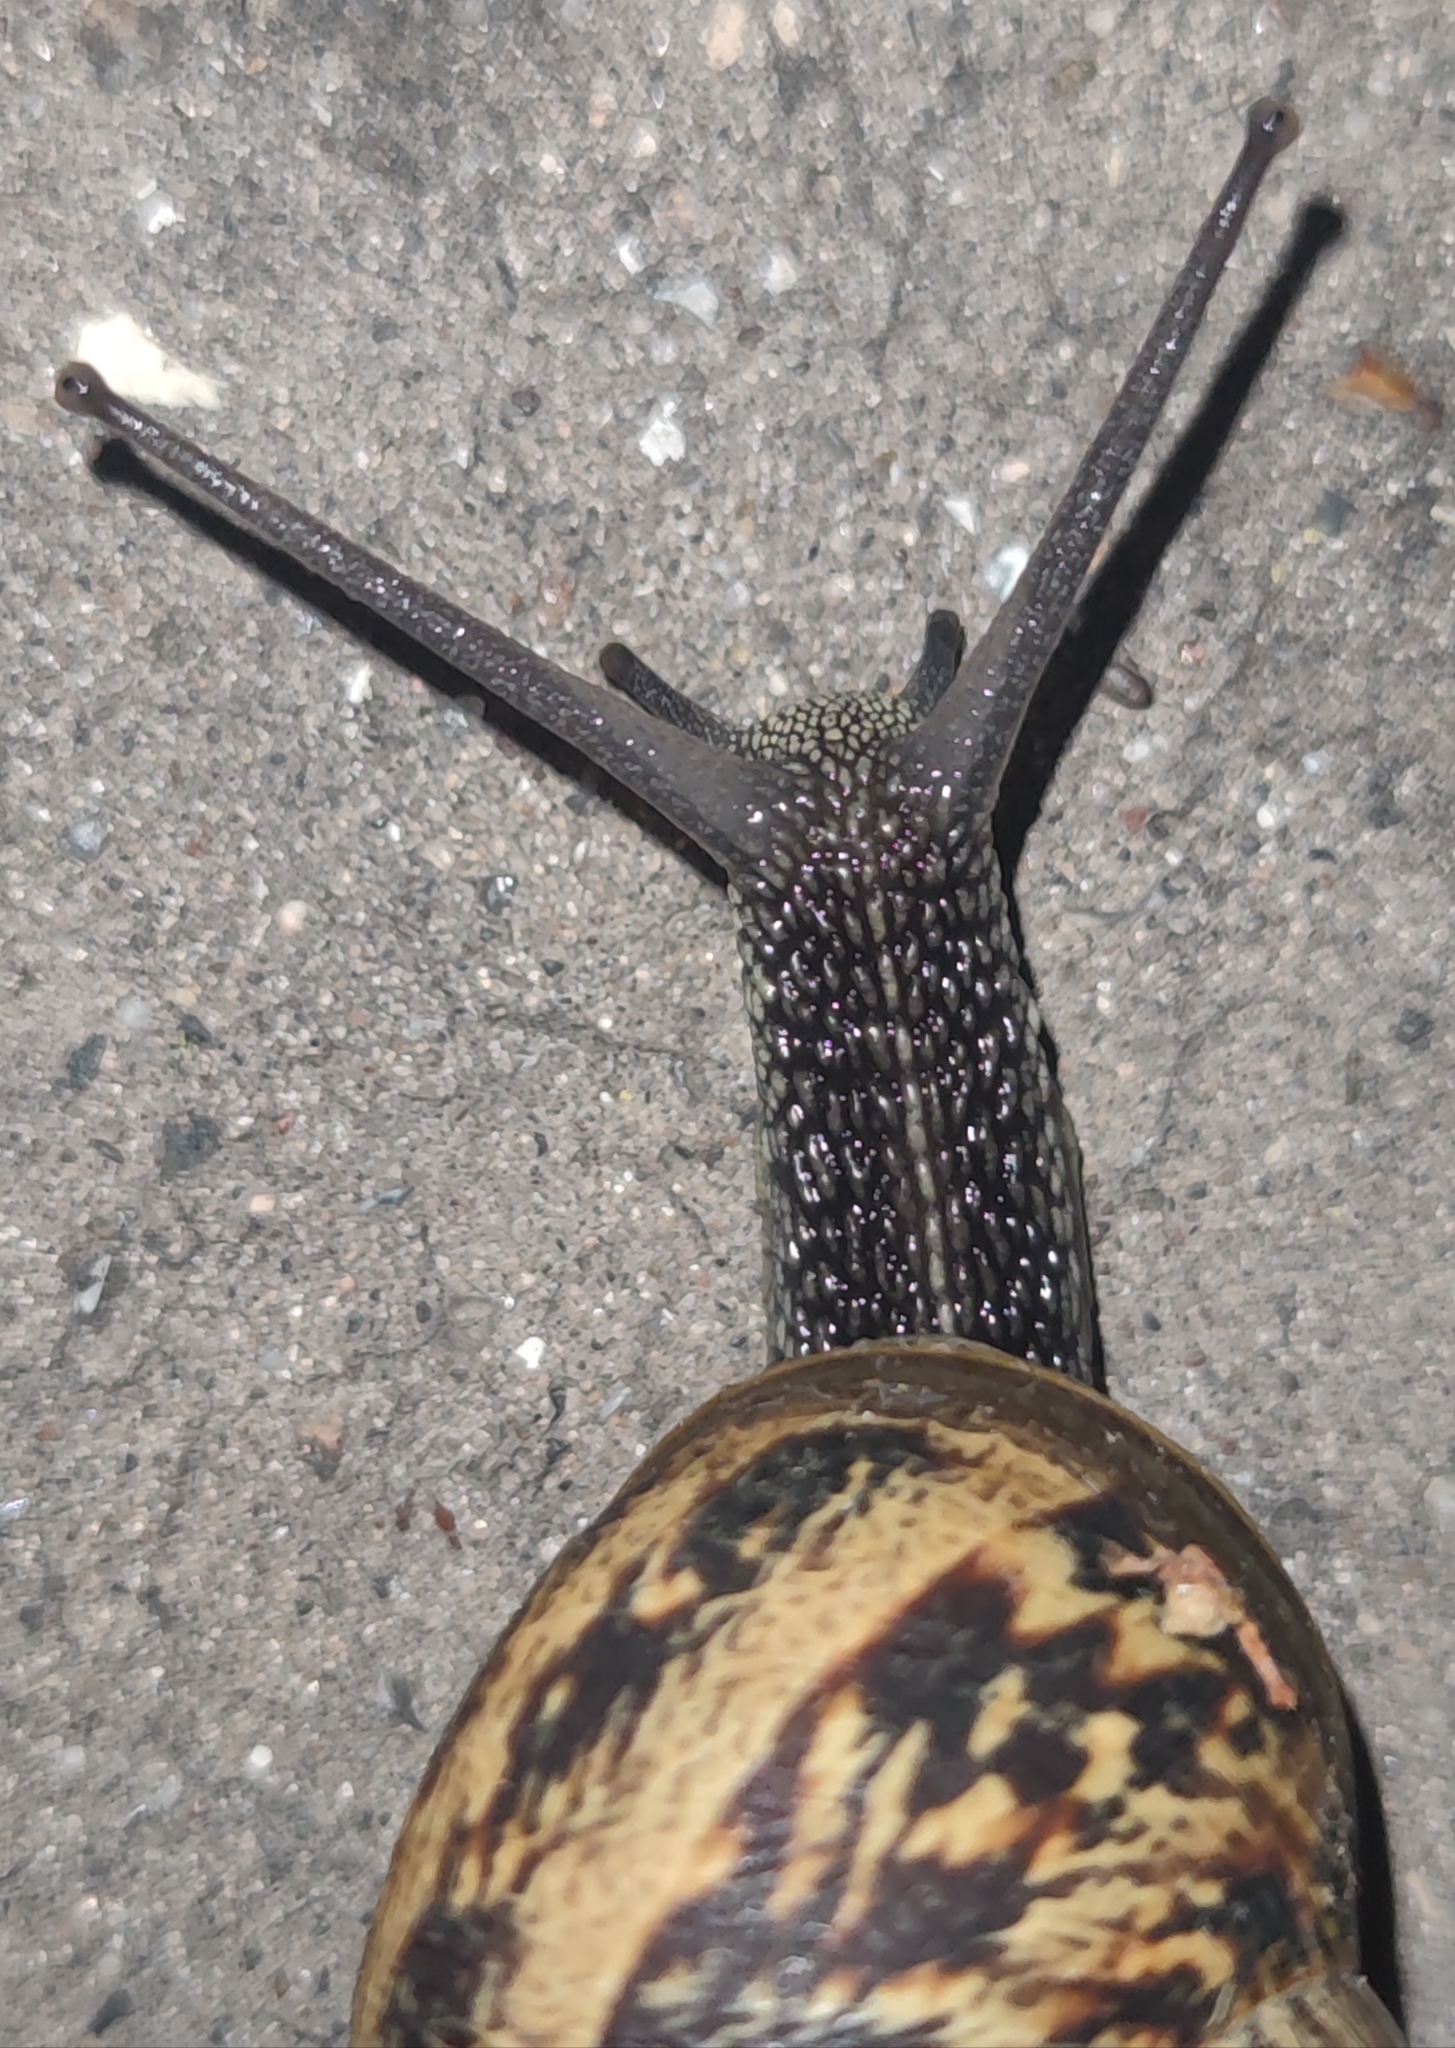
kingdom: Animalia
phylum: Mollusca
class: Gastropoda
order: Stylommatophora
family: Helicidae
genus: Cornu
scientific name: Cornu aspersum
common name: Brown garden snail
